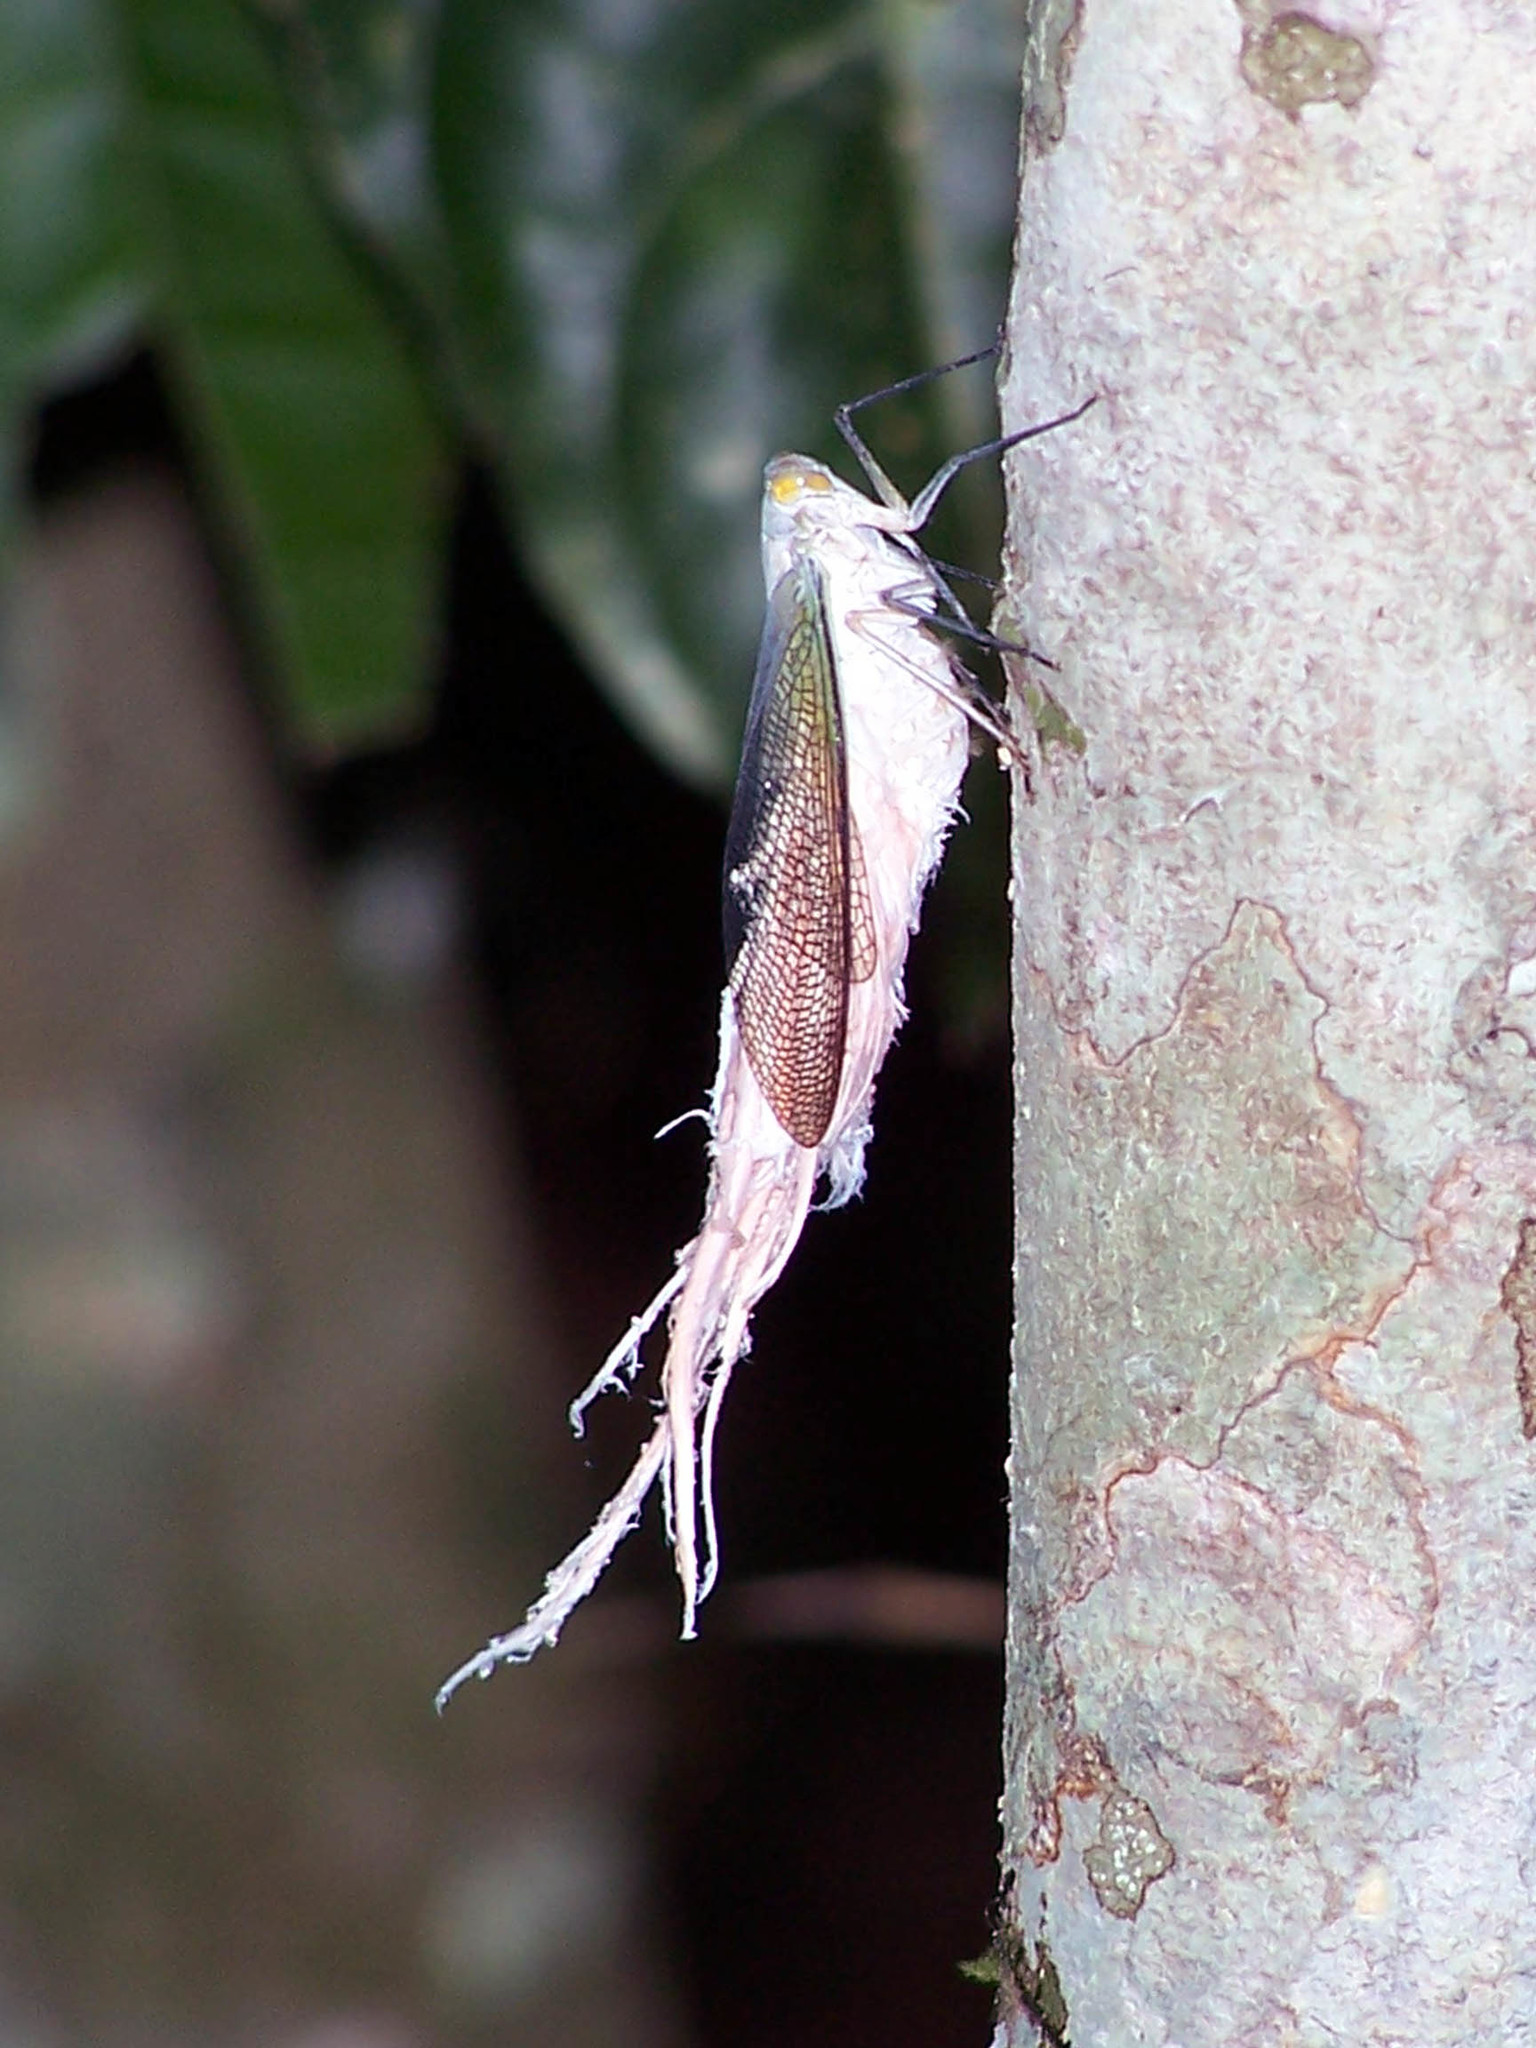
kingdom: Animalia
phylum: Arthropoda
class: Insecta
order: Hemiptera
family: Fulgoridae
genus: Pterodictya
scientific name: Pterodictya reticularis
